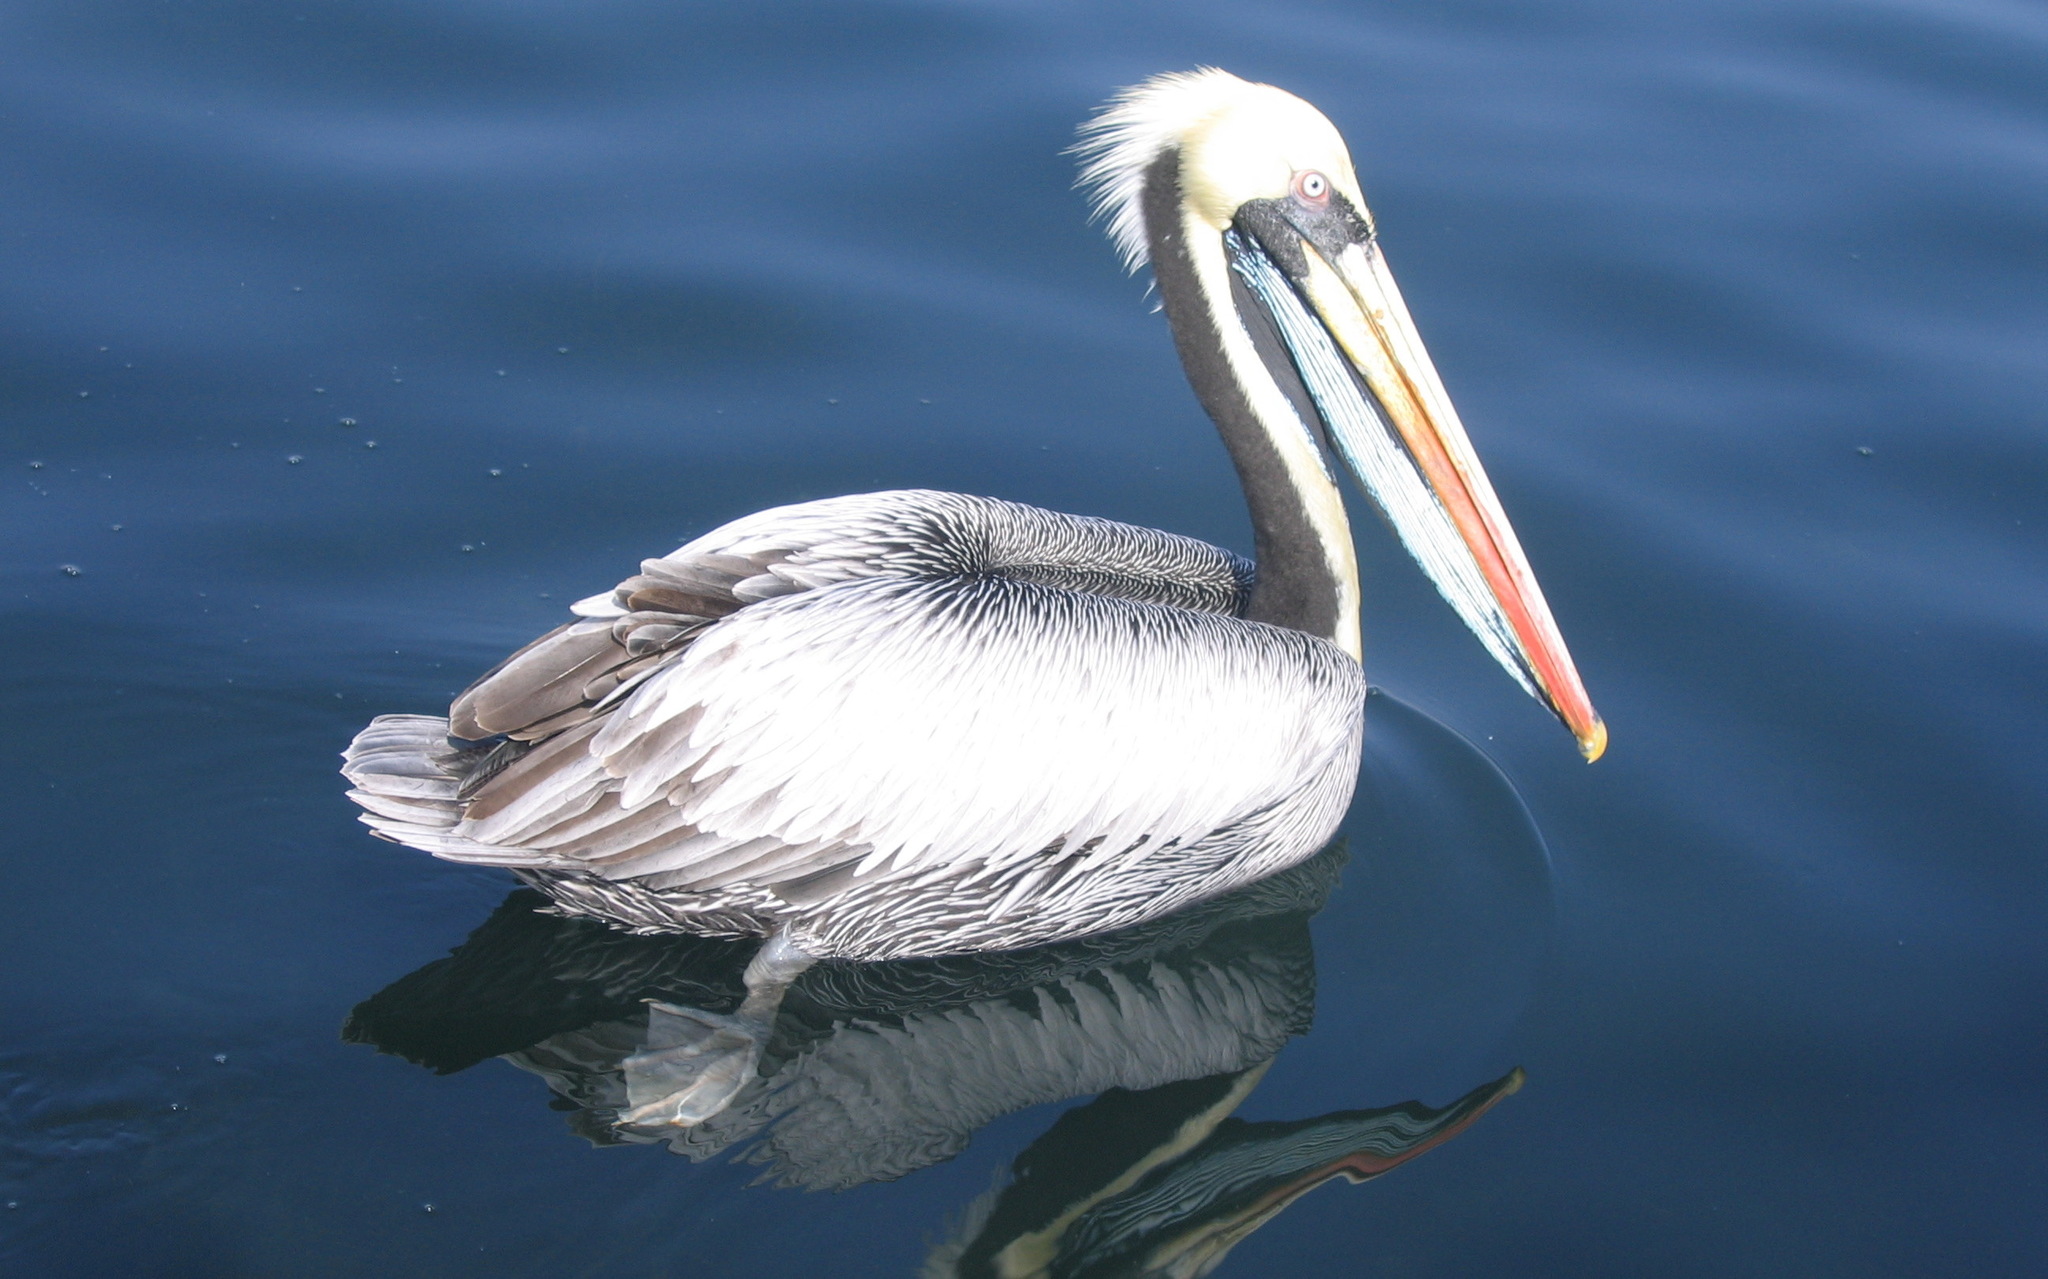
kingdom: Animalia
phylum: Chordata
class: Aves
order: Pelecaniformes
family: Pelecanidae
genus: Pelecanus
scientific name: Pelecanus thagus
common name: Peruvian pelican
